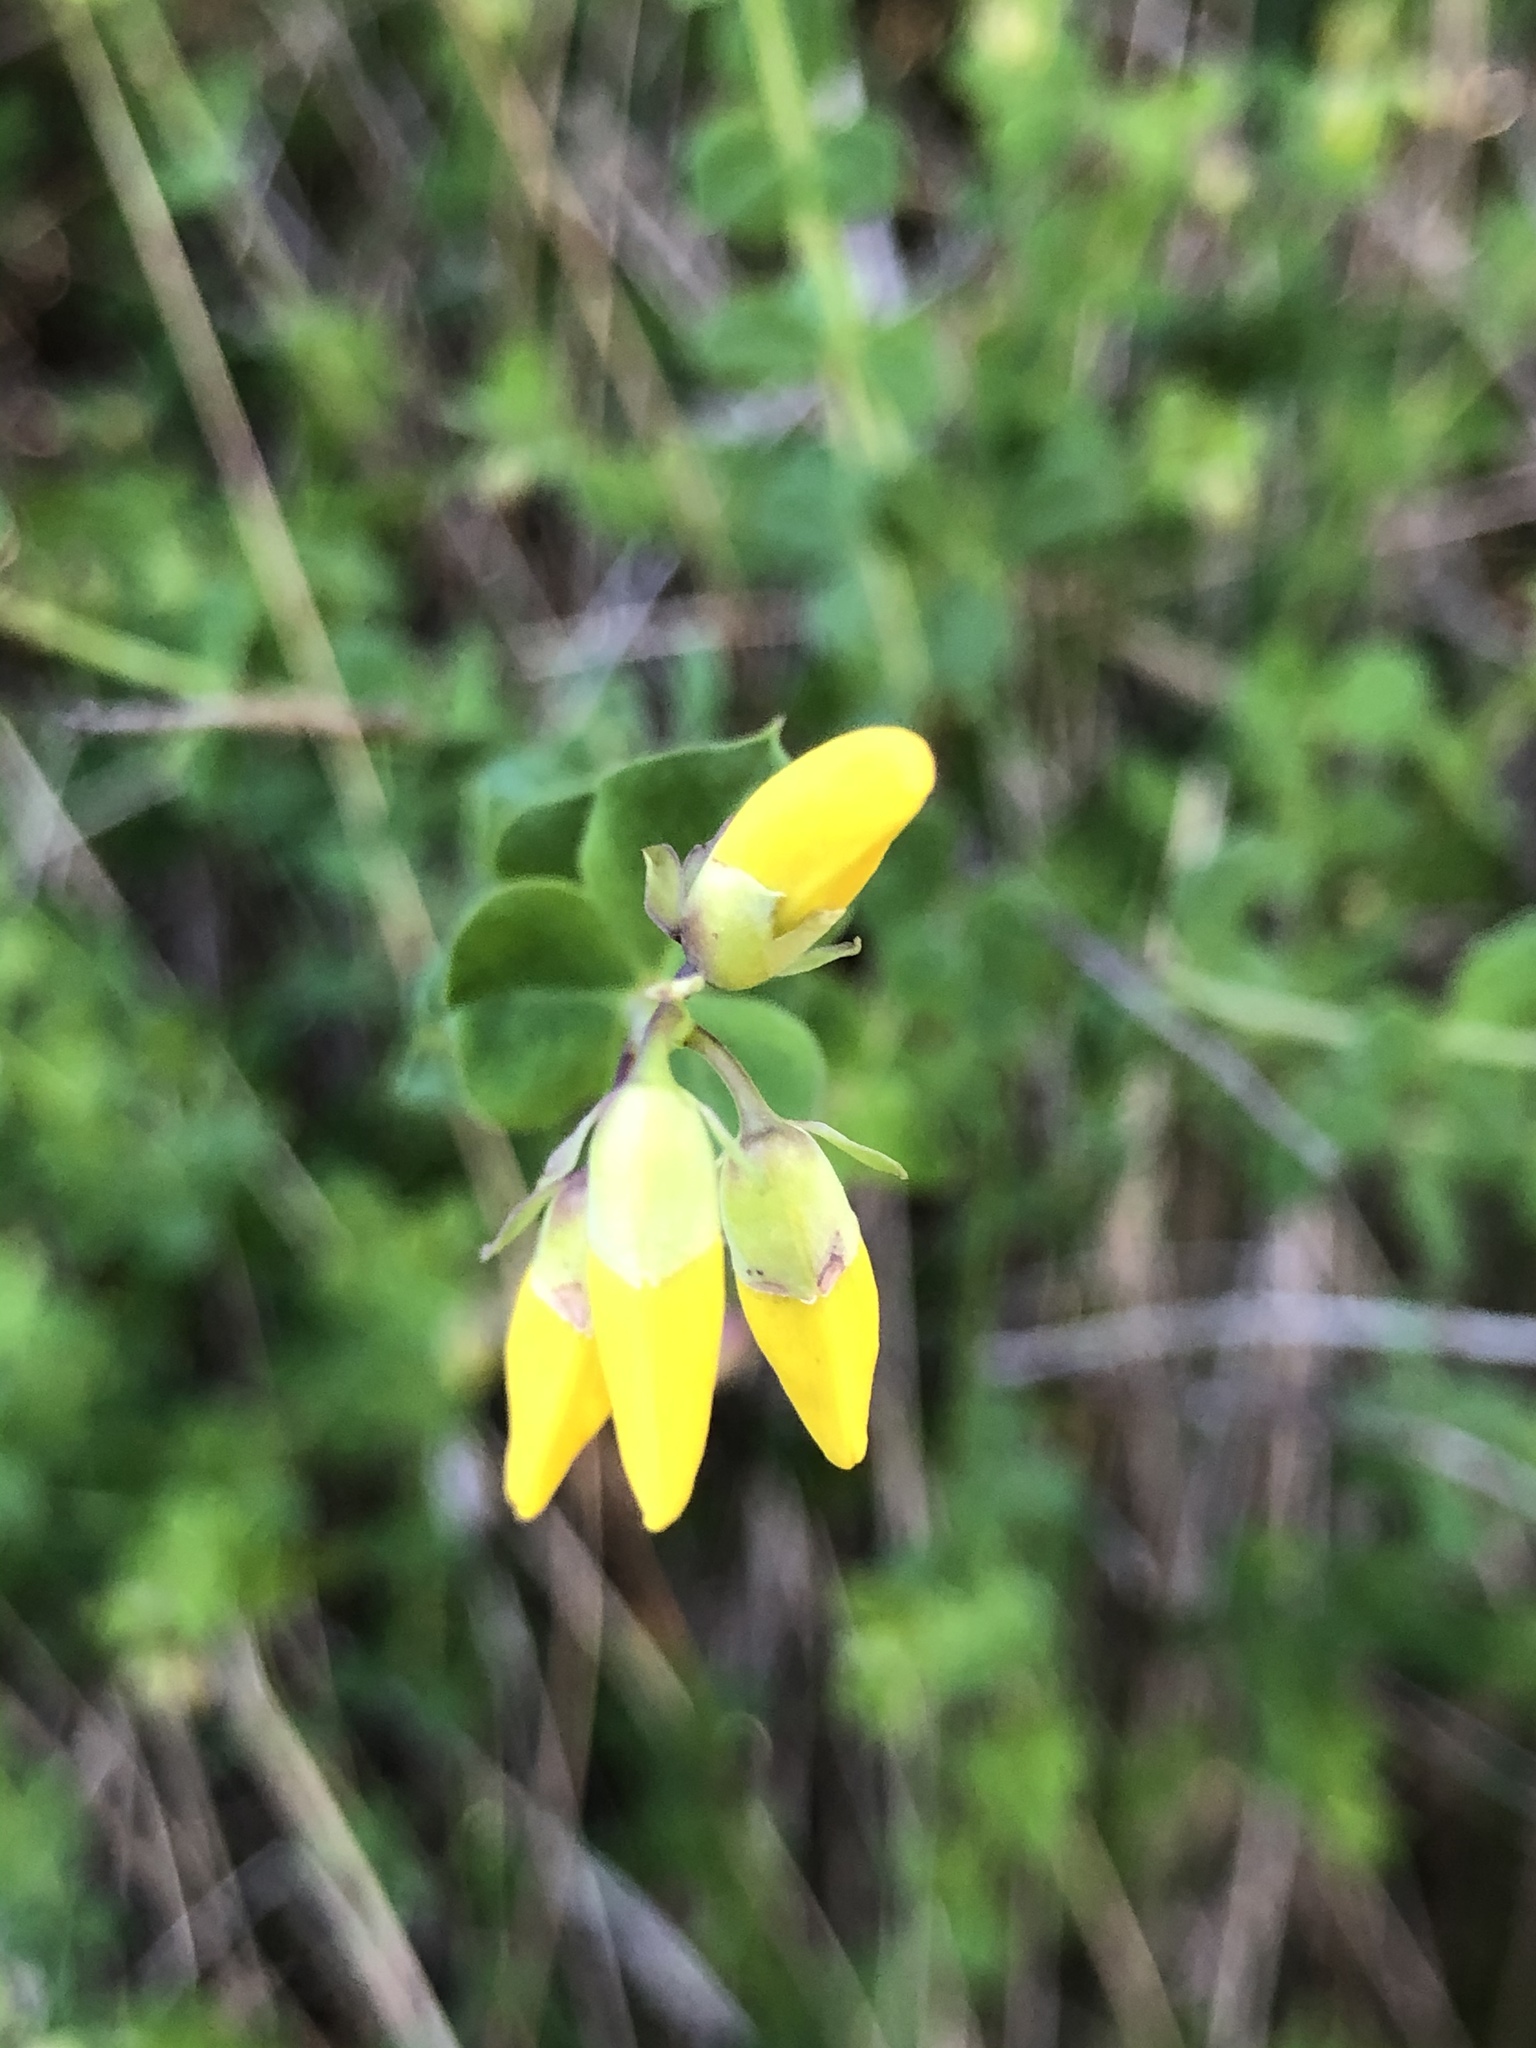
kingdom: Plantae
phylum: Tracheophyta
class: Magnoliopsida
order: Fabales
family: Fabaceae
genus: Cytisophyllum
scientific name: Cytisophyllum sessilifolium
